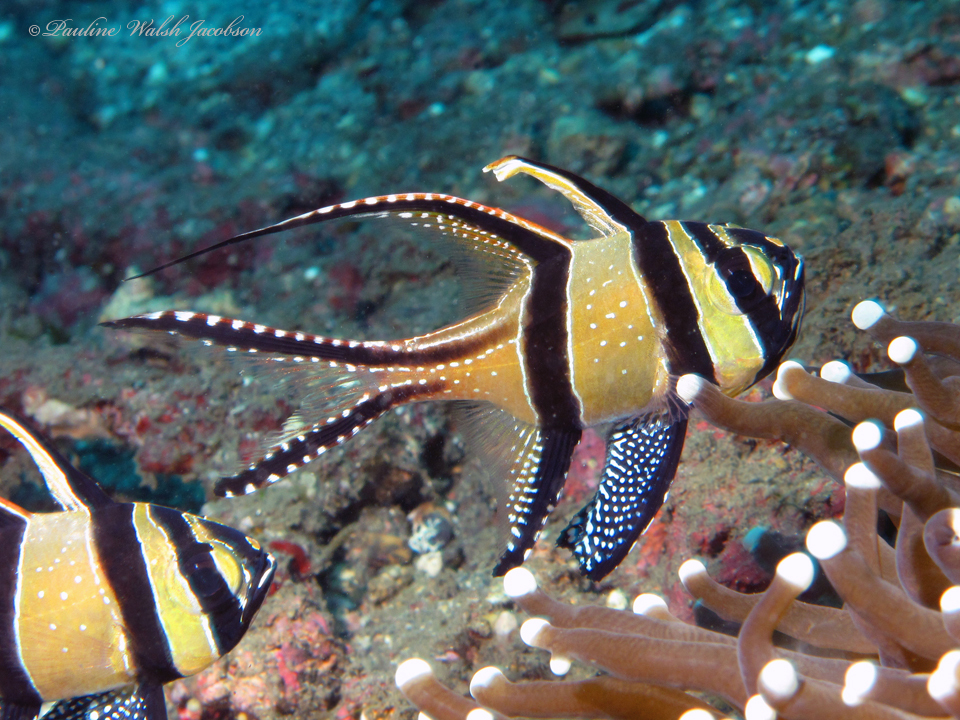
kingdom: Animalia
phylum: Chordata
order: Perciformes
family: Apogonidae
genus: Pterapogon
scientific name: Pterapogon kauderni
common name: Banggai cardinalfish
